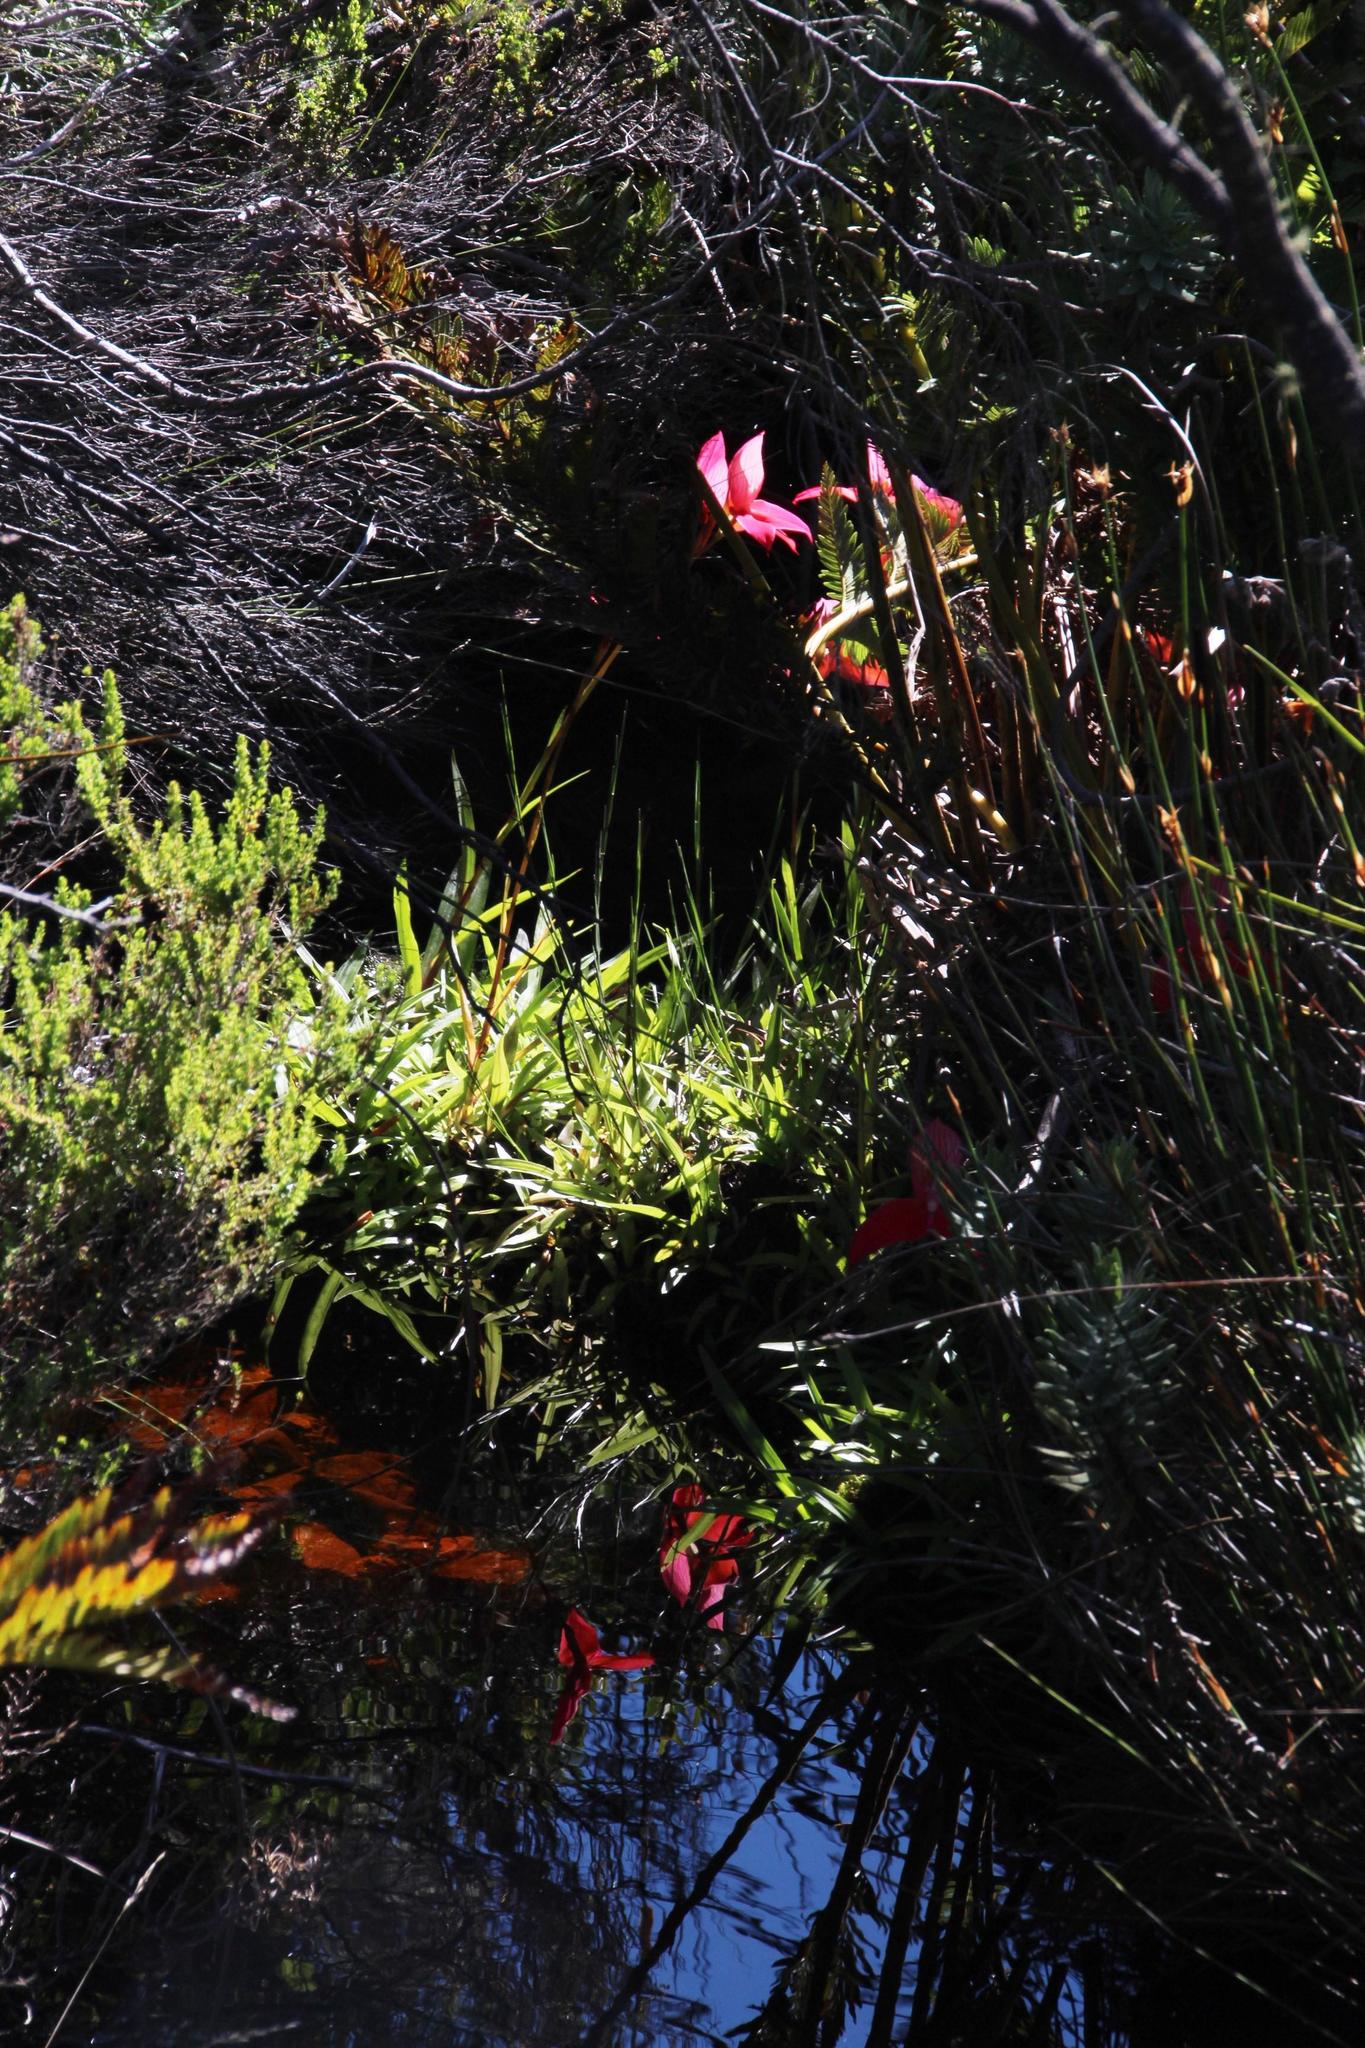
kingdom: Plantae
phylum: Tracheophyta
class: Liliopsida
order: Asparagales
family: Orchidaceae
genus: Disa
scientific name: Disa uniflora
